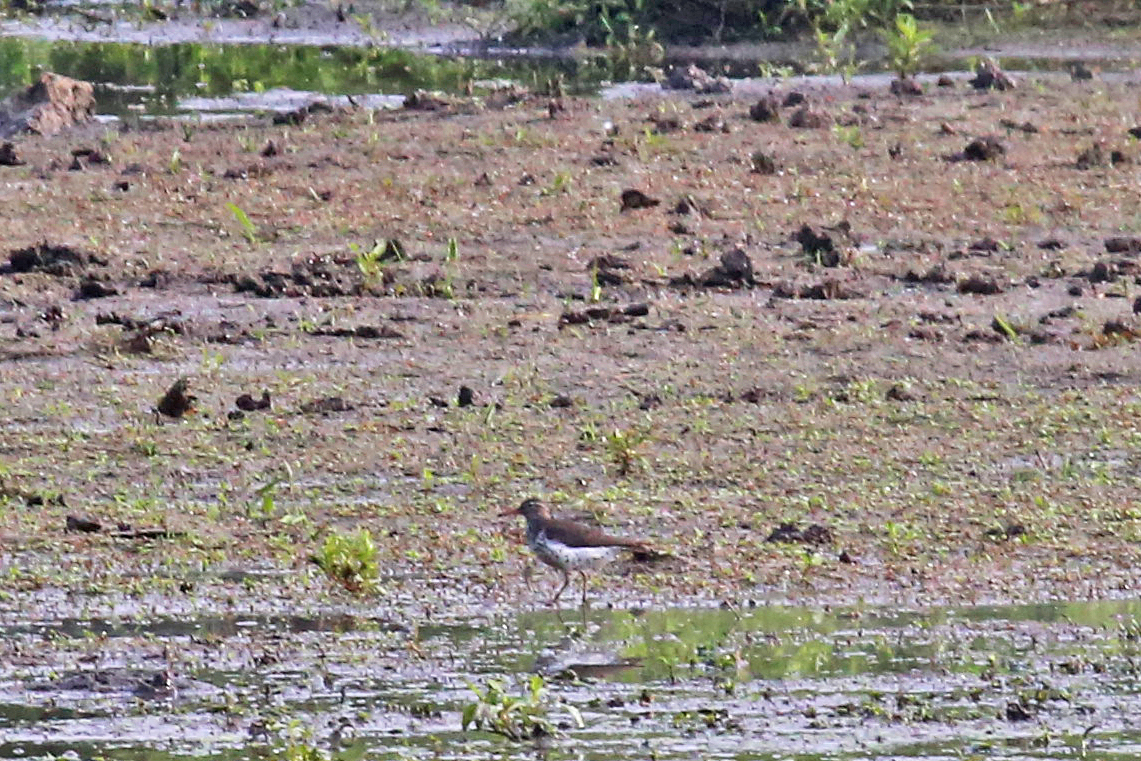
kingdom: Animalia
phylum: Chordata
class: Aves
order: Charadriiformes
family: Scolopacidae
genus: Actitis
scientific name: Actitis macularius
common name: Spotted sandpiper
